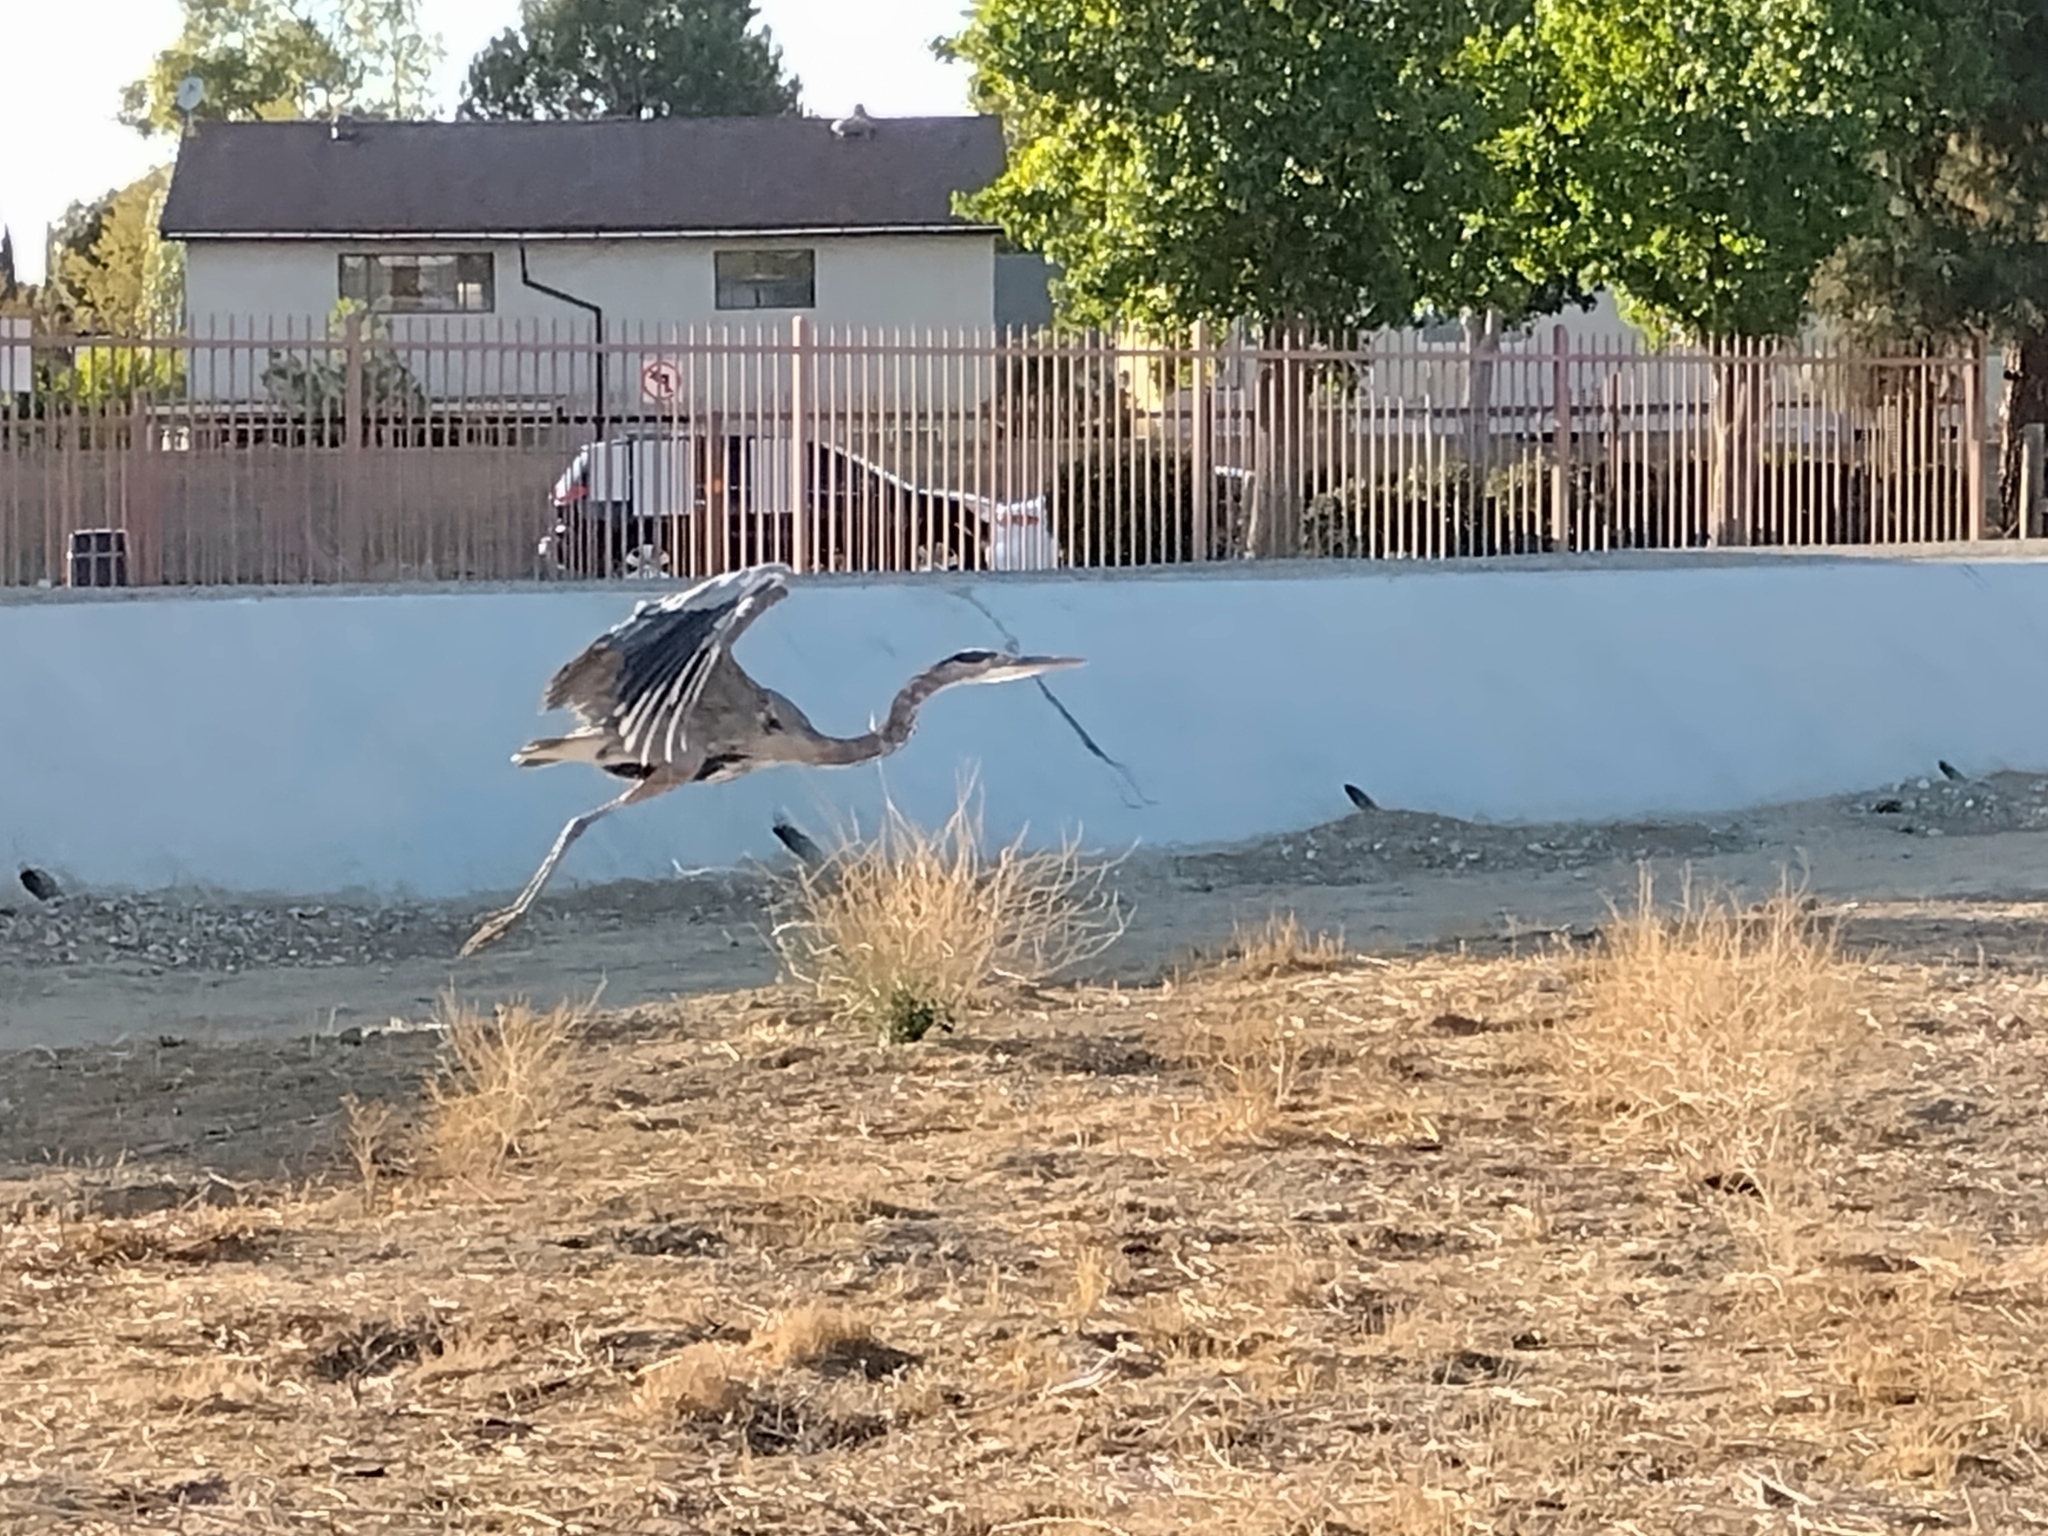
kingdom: Animalia
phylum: Chordata
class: Aves
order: Pelecaniformes
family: Ardeidae
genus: Ardea
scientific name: Ardea herodias
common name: Great blue heron
